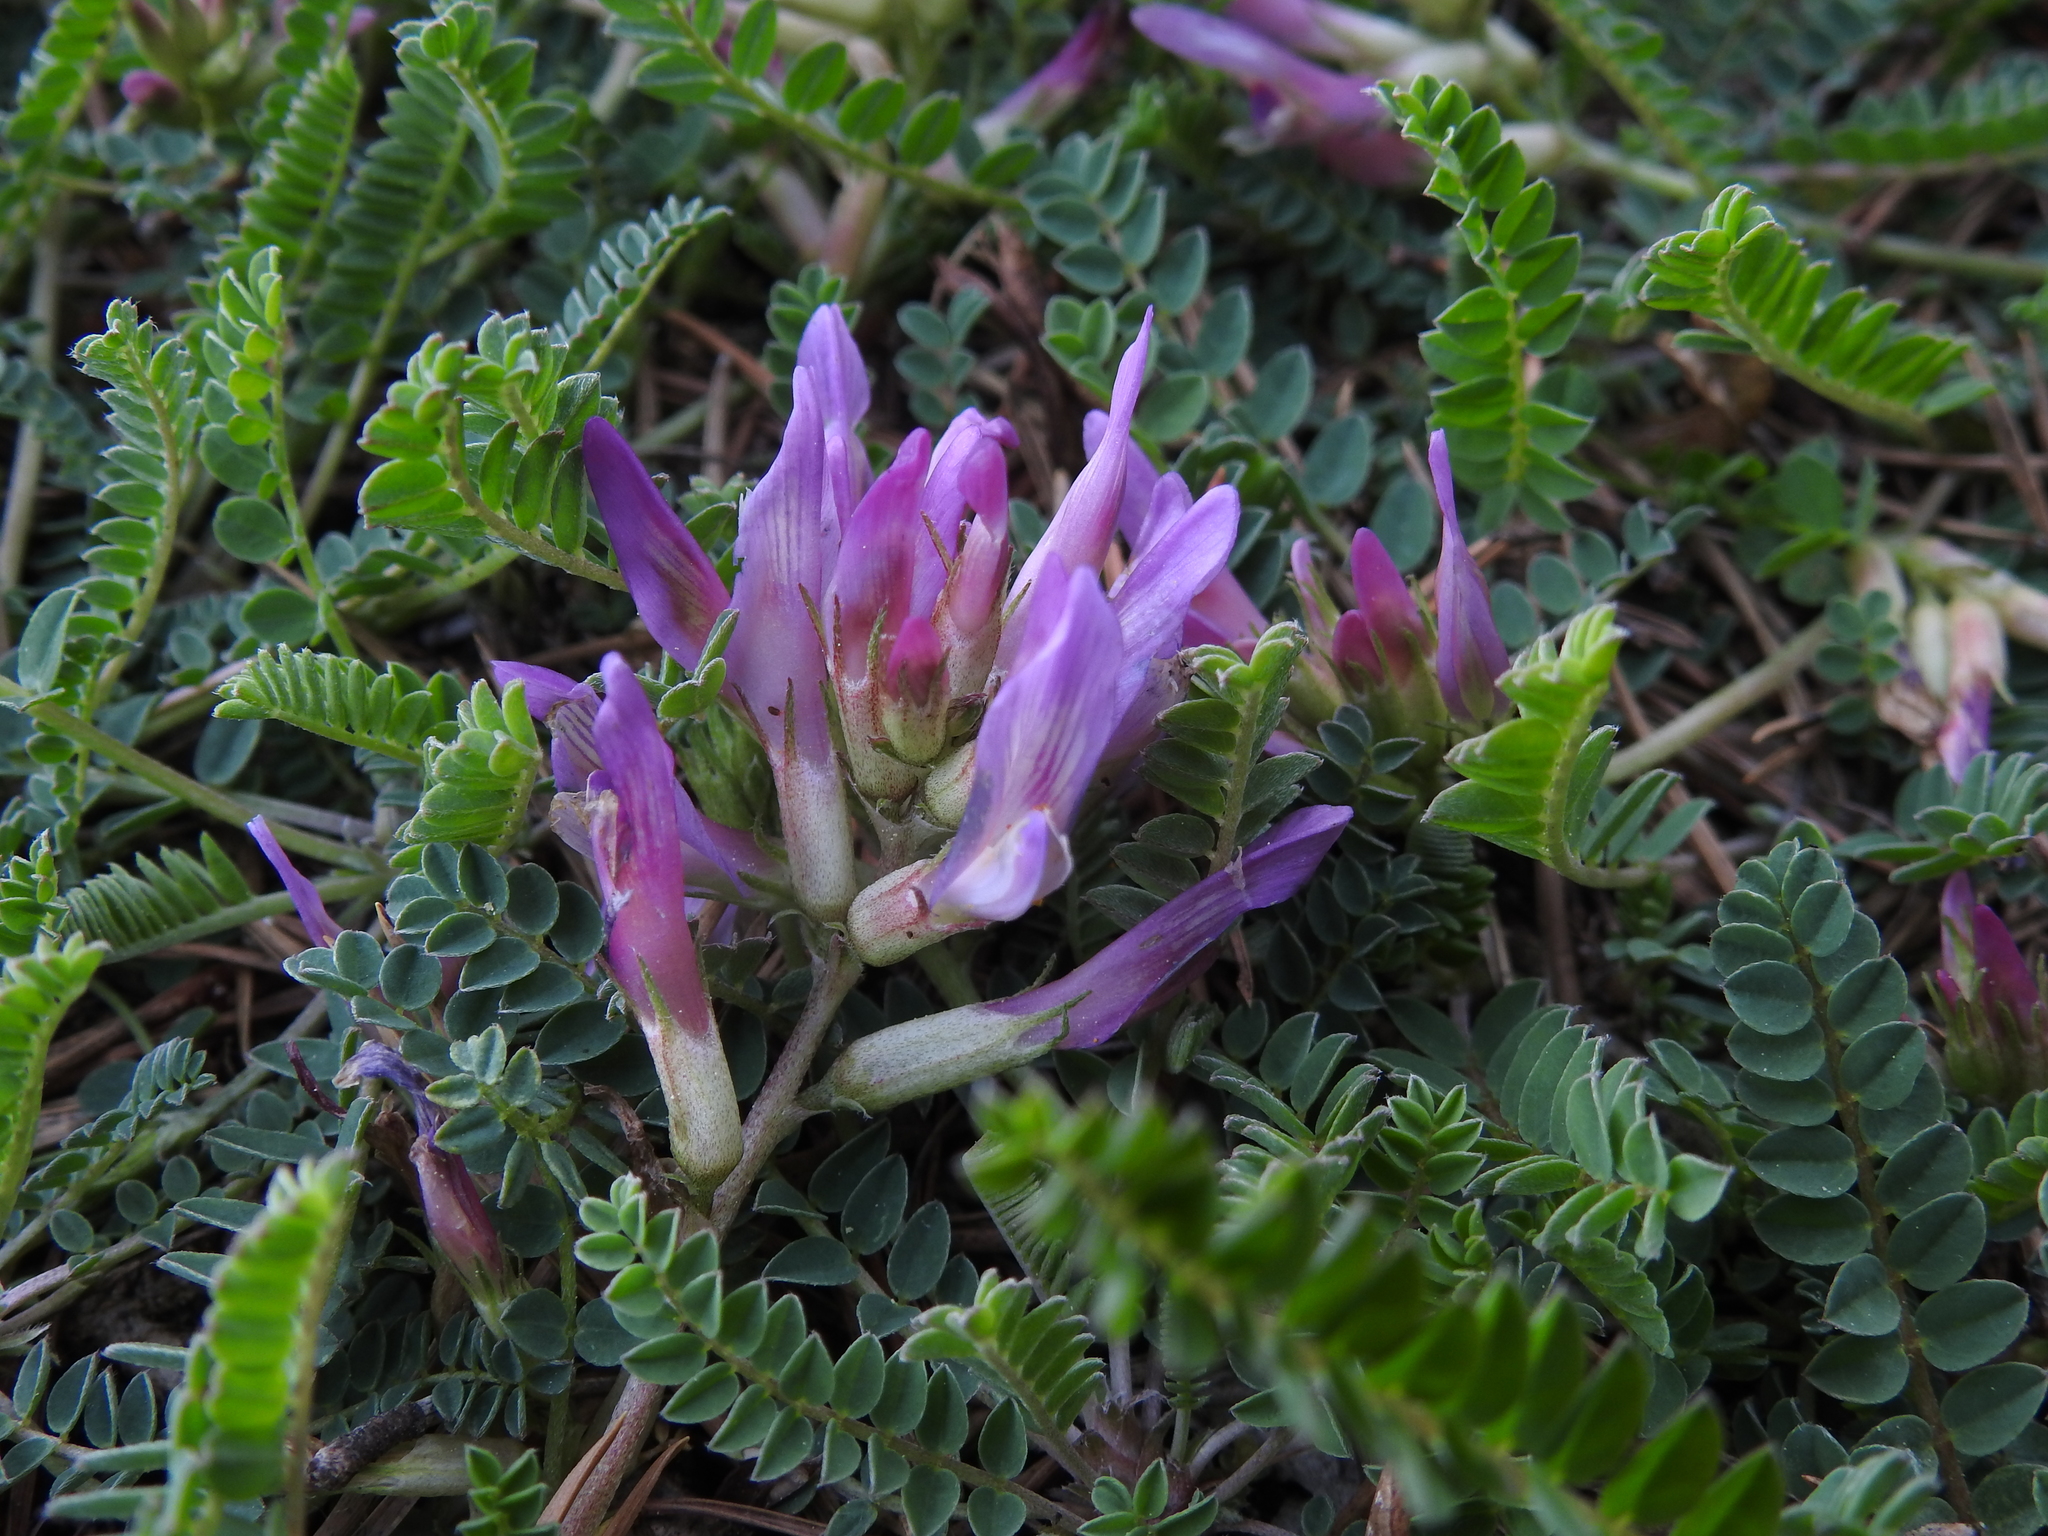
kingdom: Plantae
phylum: Tracheophyta
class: Magnoliopsida
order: Fabales
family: Fabaceae
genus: Astragalus
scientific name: Astragalus monspessulanus
